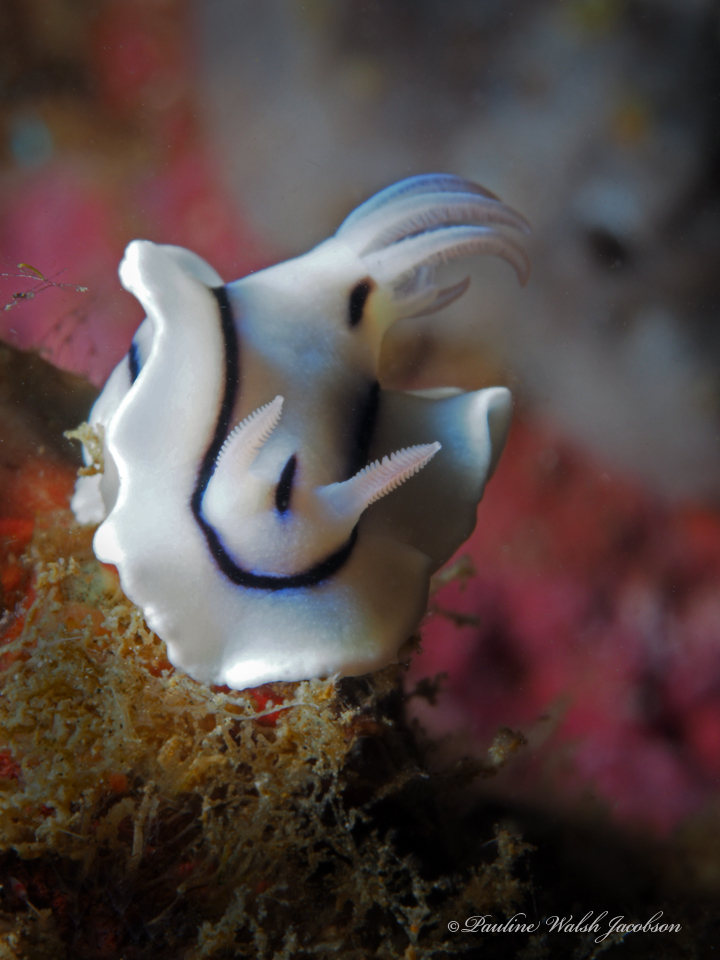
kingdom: Animalia
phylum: Mollusca
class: Gastropoda
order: Nudibranchia
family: Chromodorididae
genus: Chromodoris
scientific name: Chromodoris lochi
